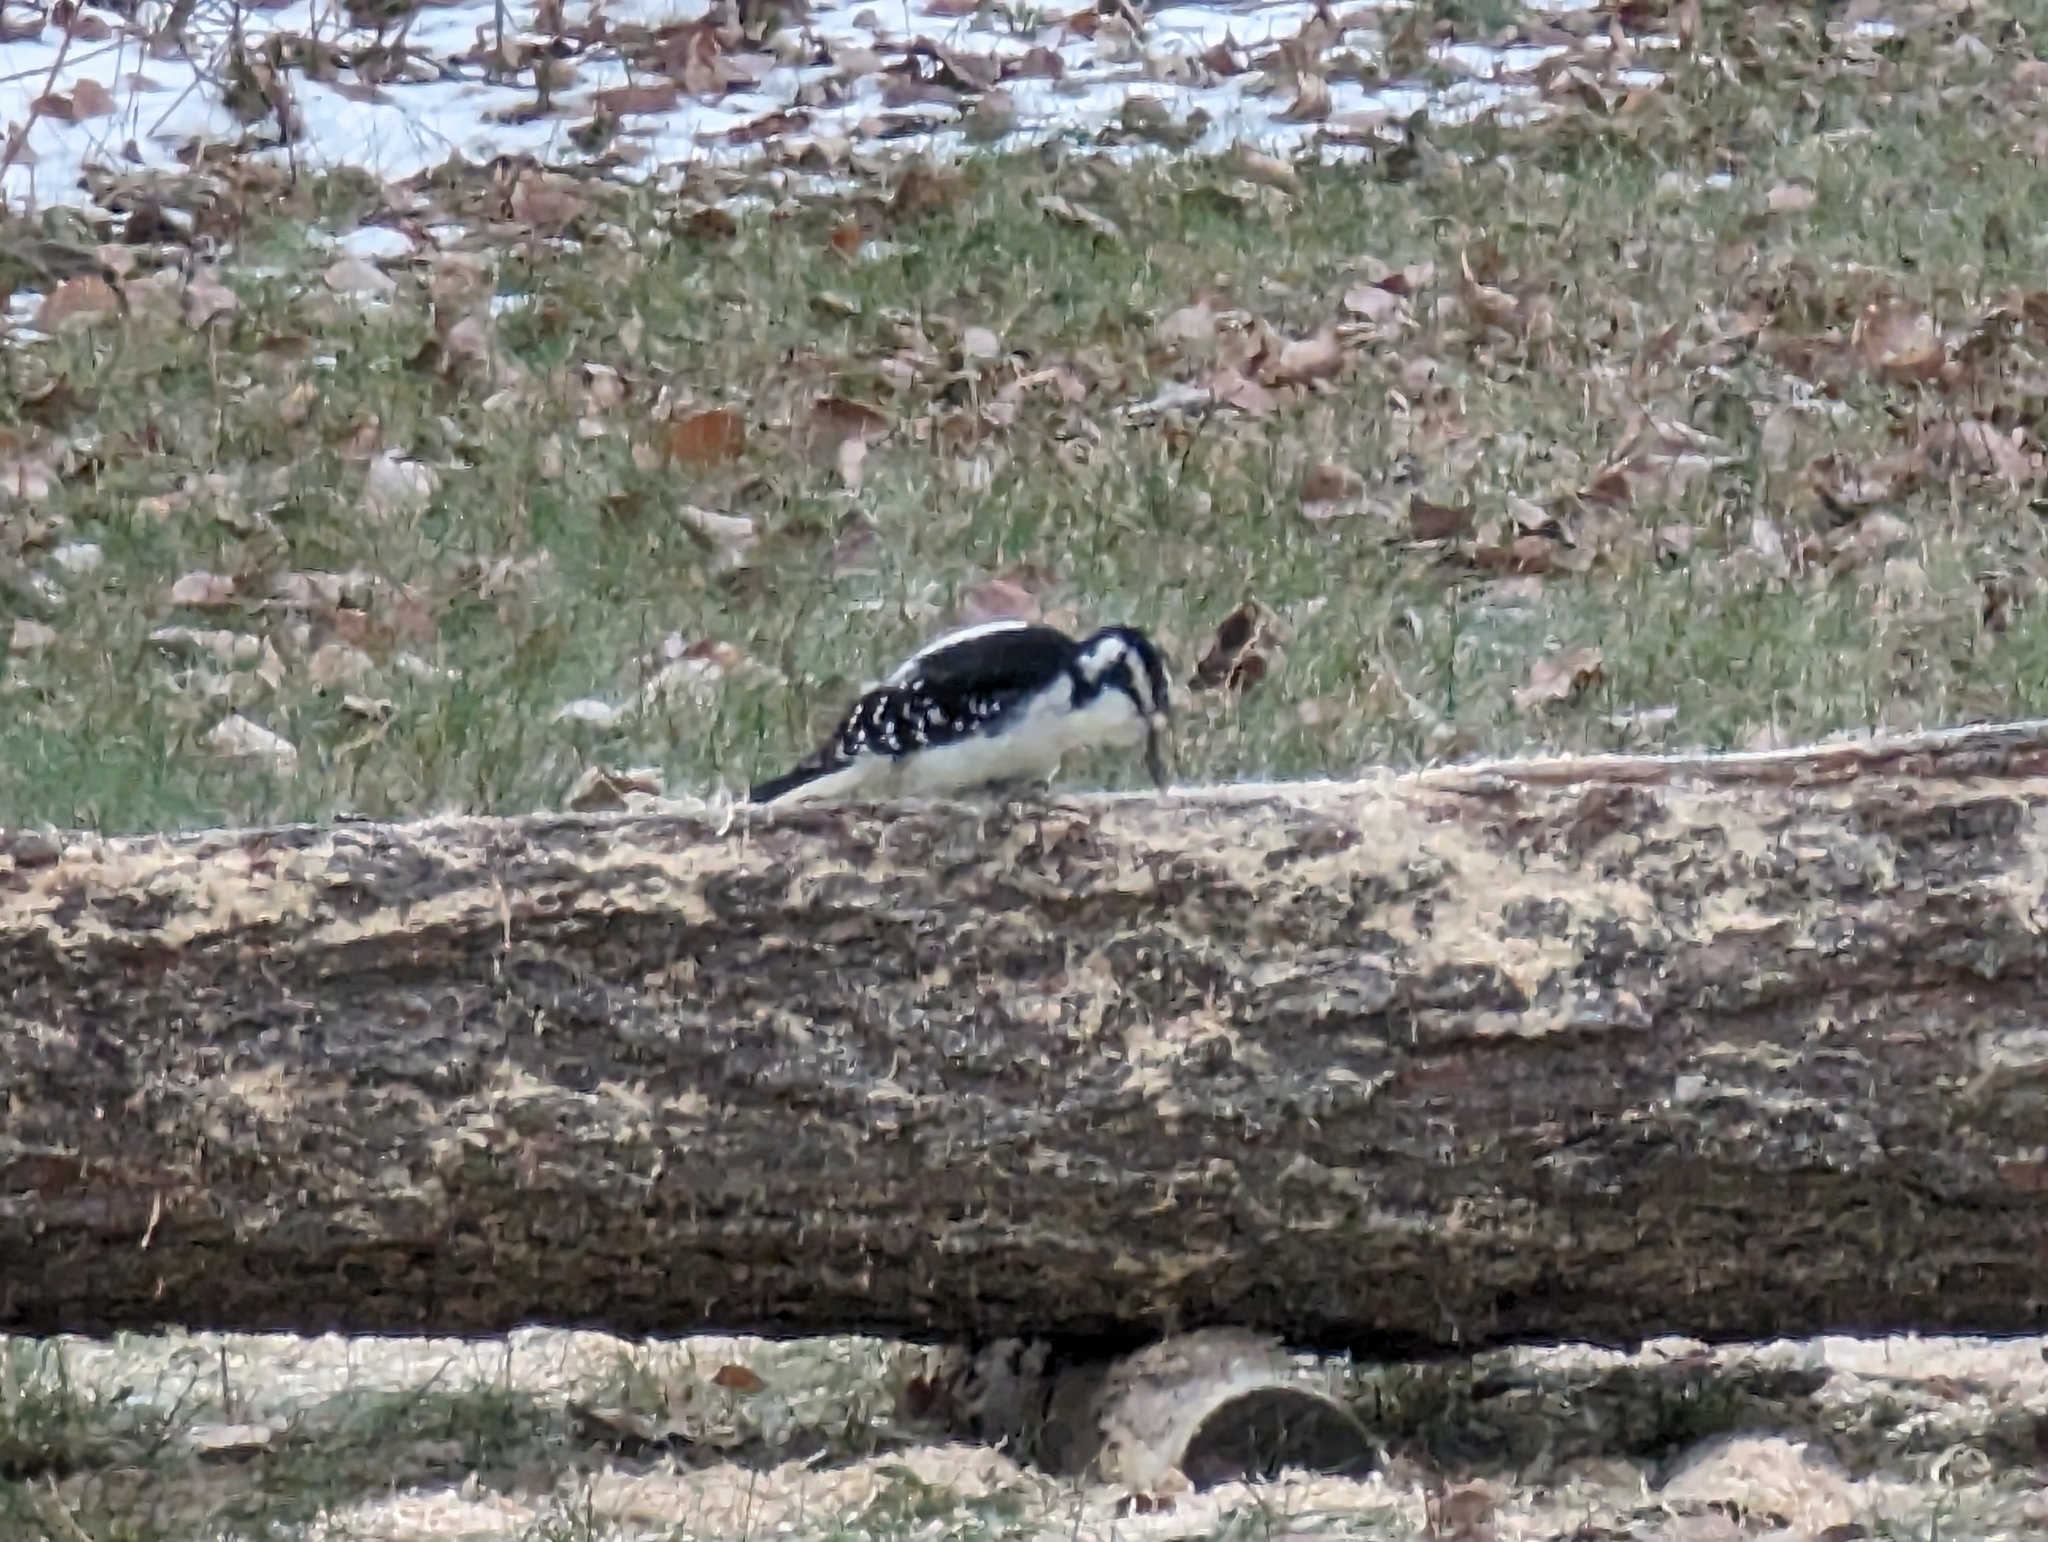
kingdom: Animalia
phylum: Chordata
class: Aves
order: Piciformes
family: Picidae
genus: Leuconotopicus
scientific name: Leuconotopicus villosus
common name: Hairy woodpecker
